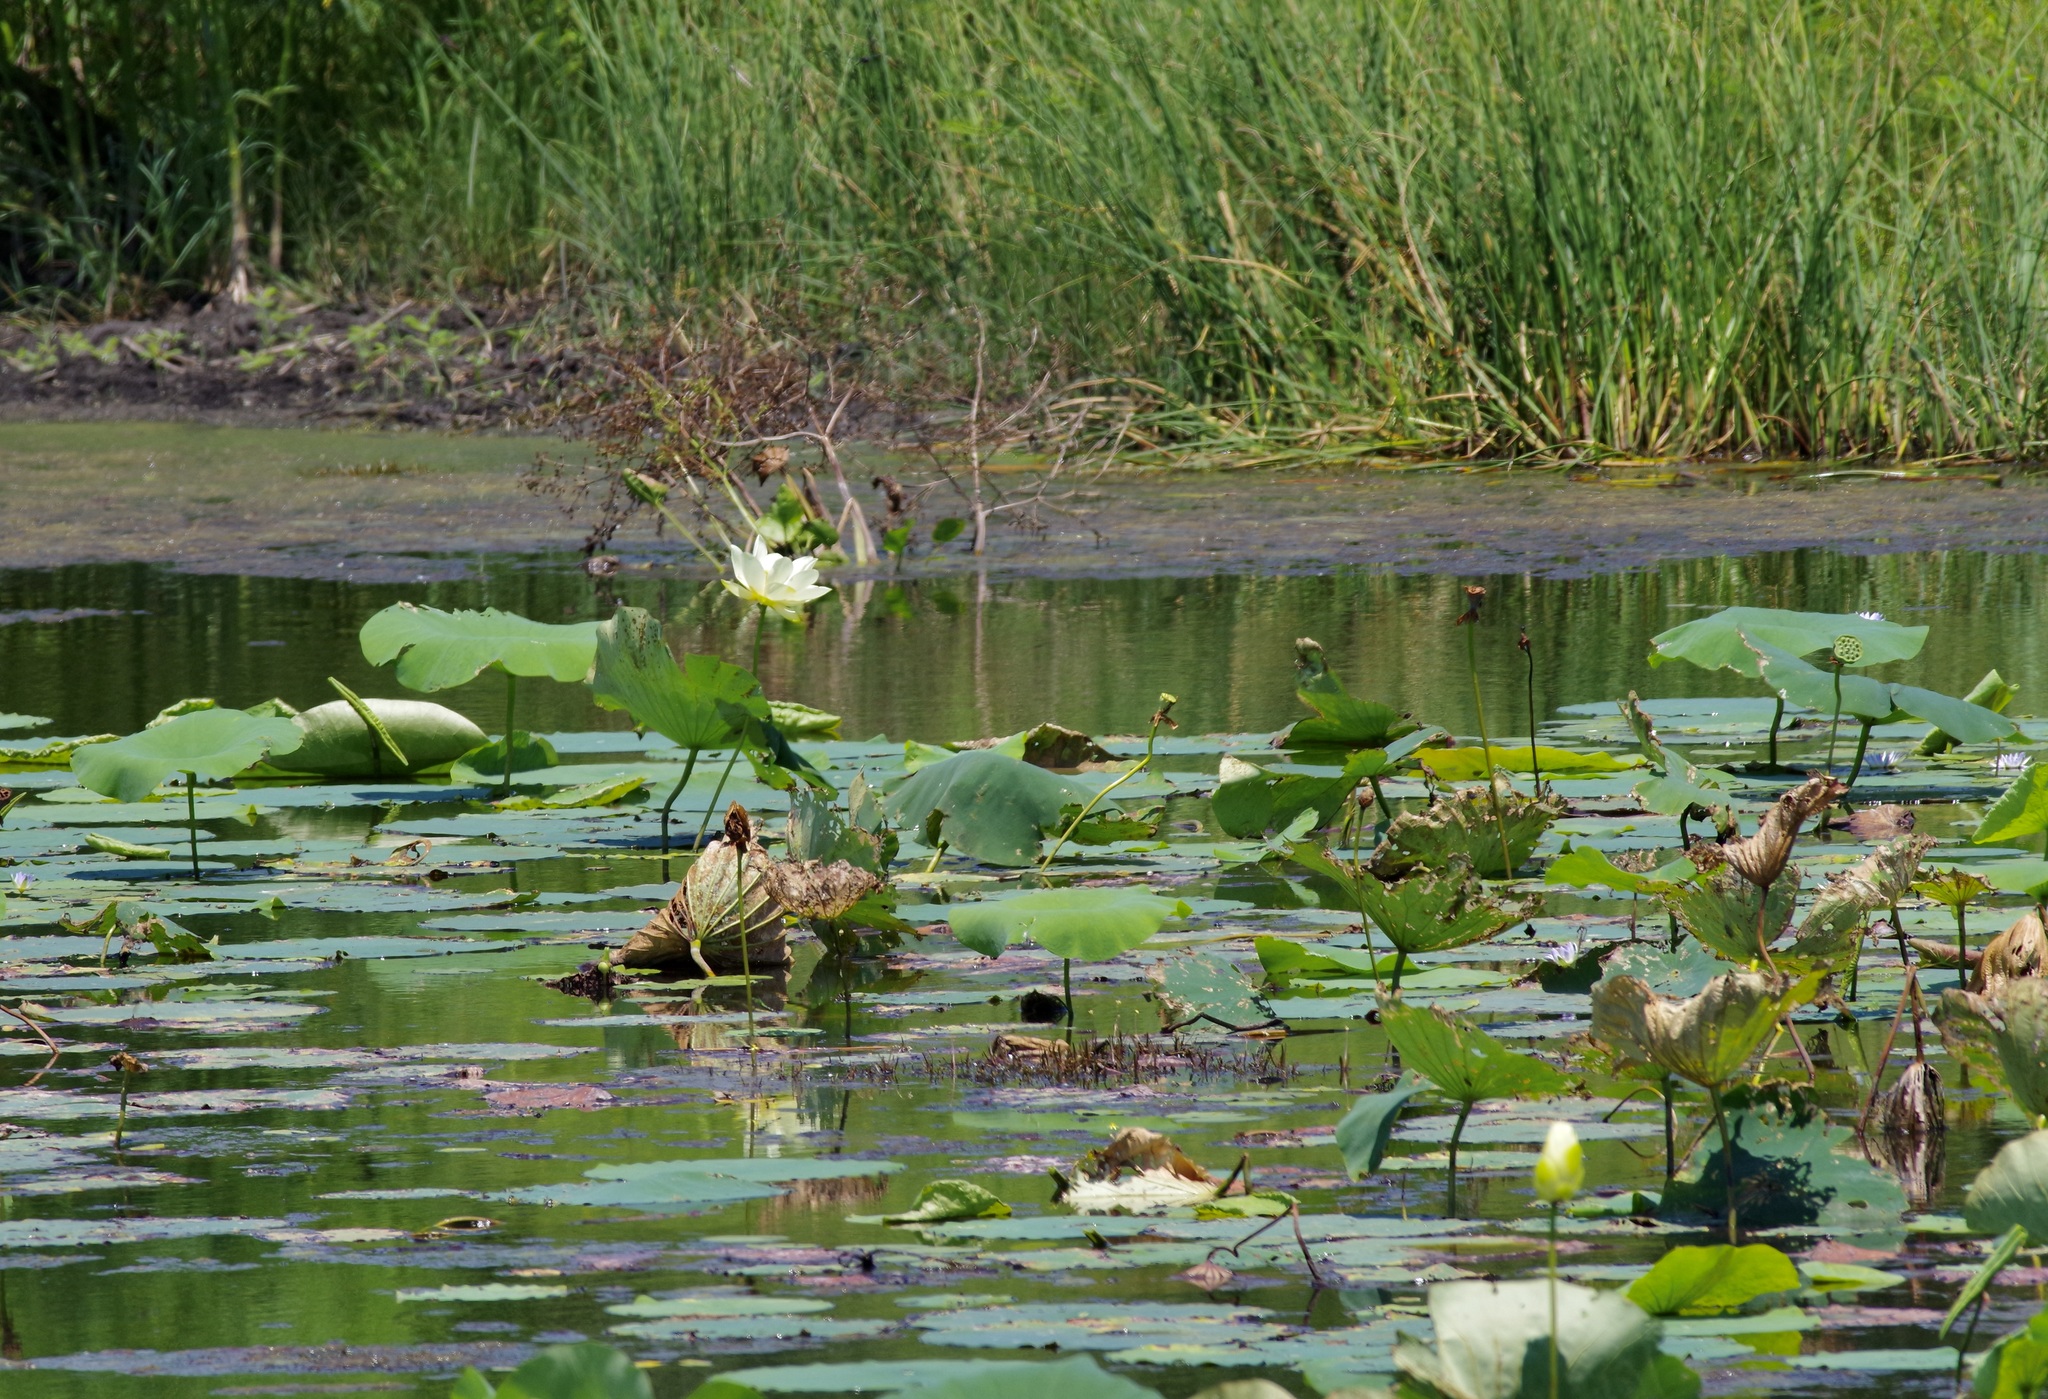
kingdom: Plantae
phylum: Tracheophyta
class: Magnoliopsida
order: Proteales
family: Nelumbonaceae
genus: Nelumbo
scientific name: Nelumbo lutea
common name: American lotus
